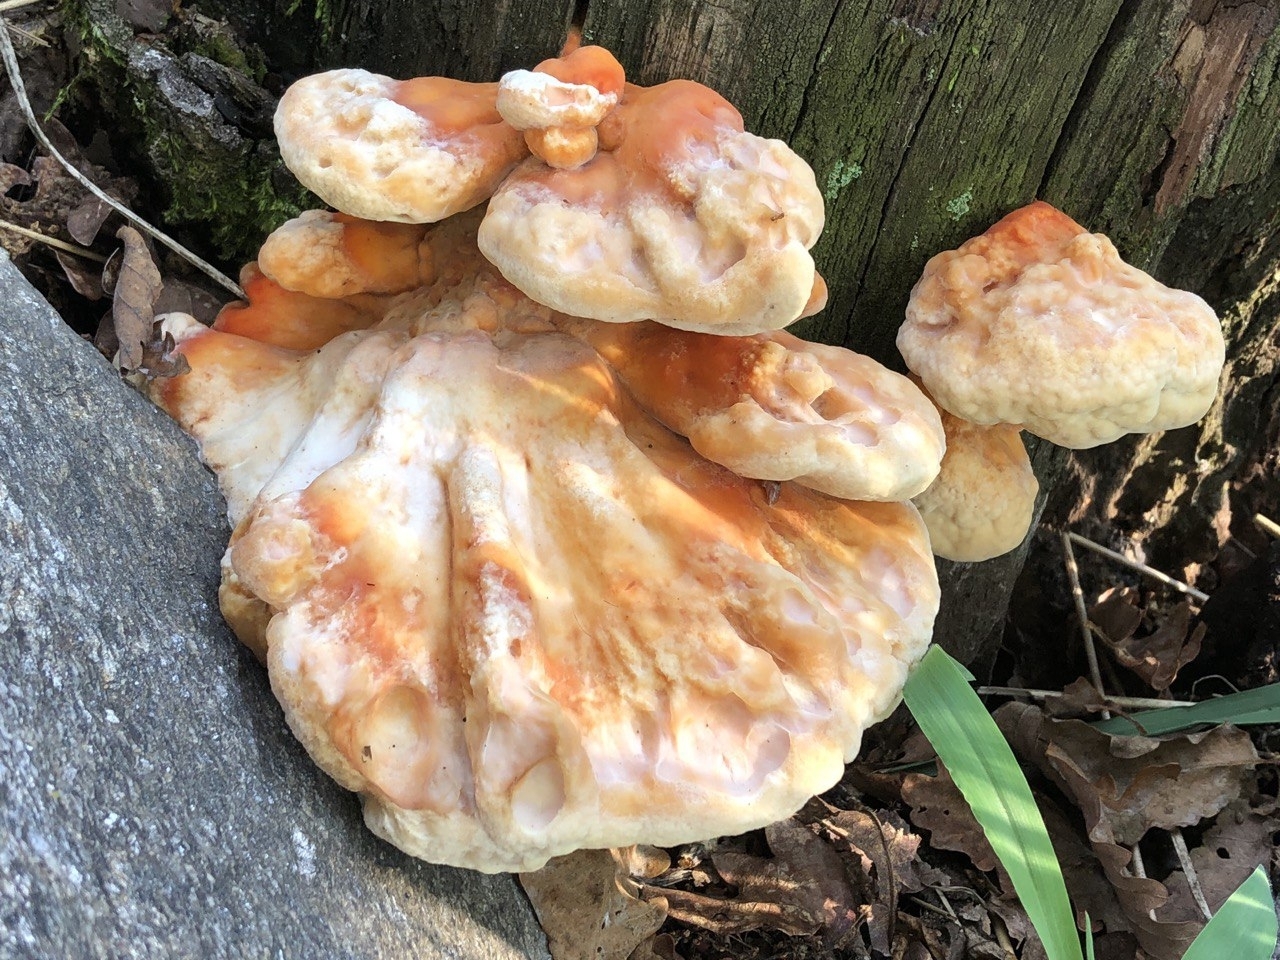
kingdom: Fungi
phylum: Basidiomycota
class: Agaricomycetes
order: Polyporales
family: Laetiporaceae
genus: Laetiporus
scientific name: Laetiporus sulphureus
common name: Chicken of the woods
